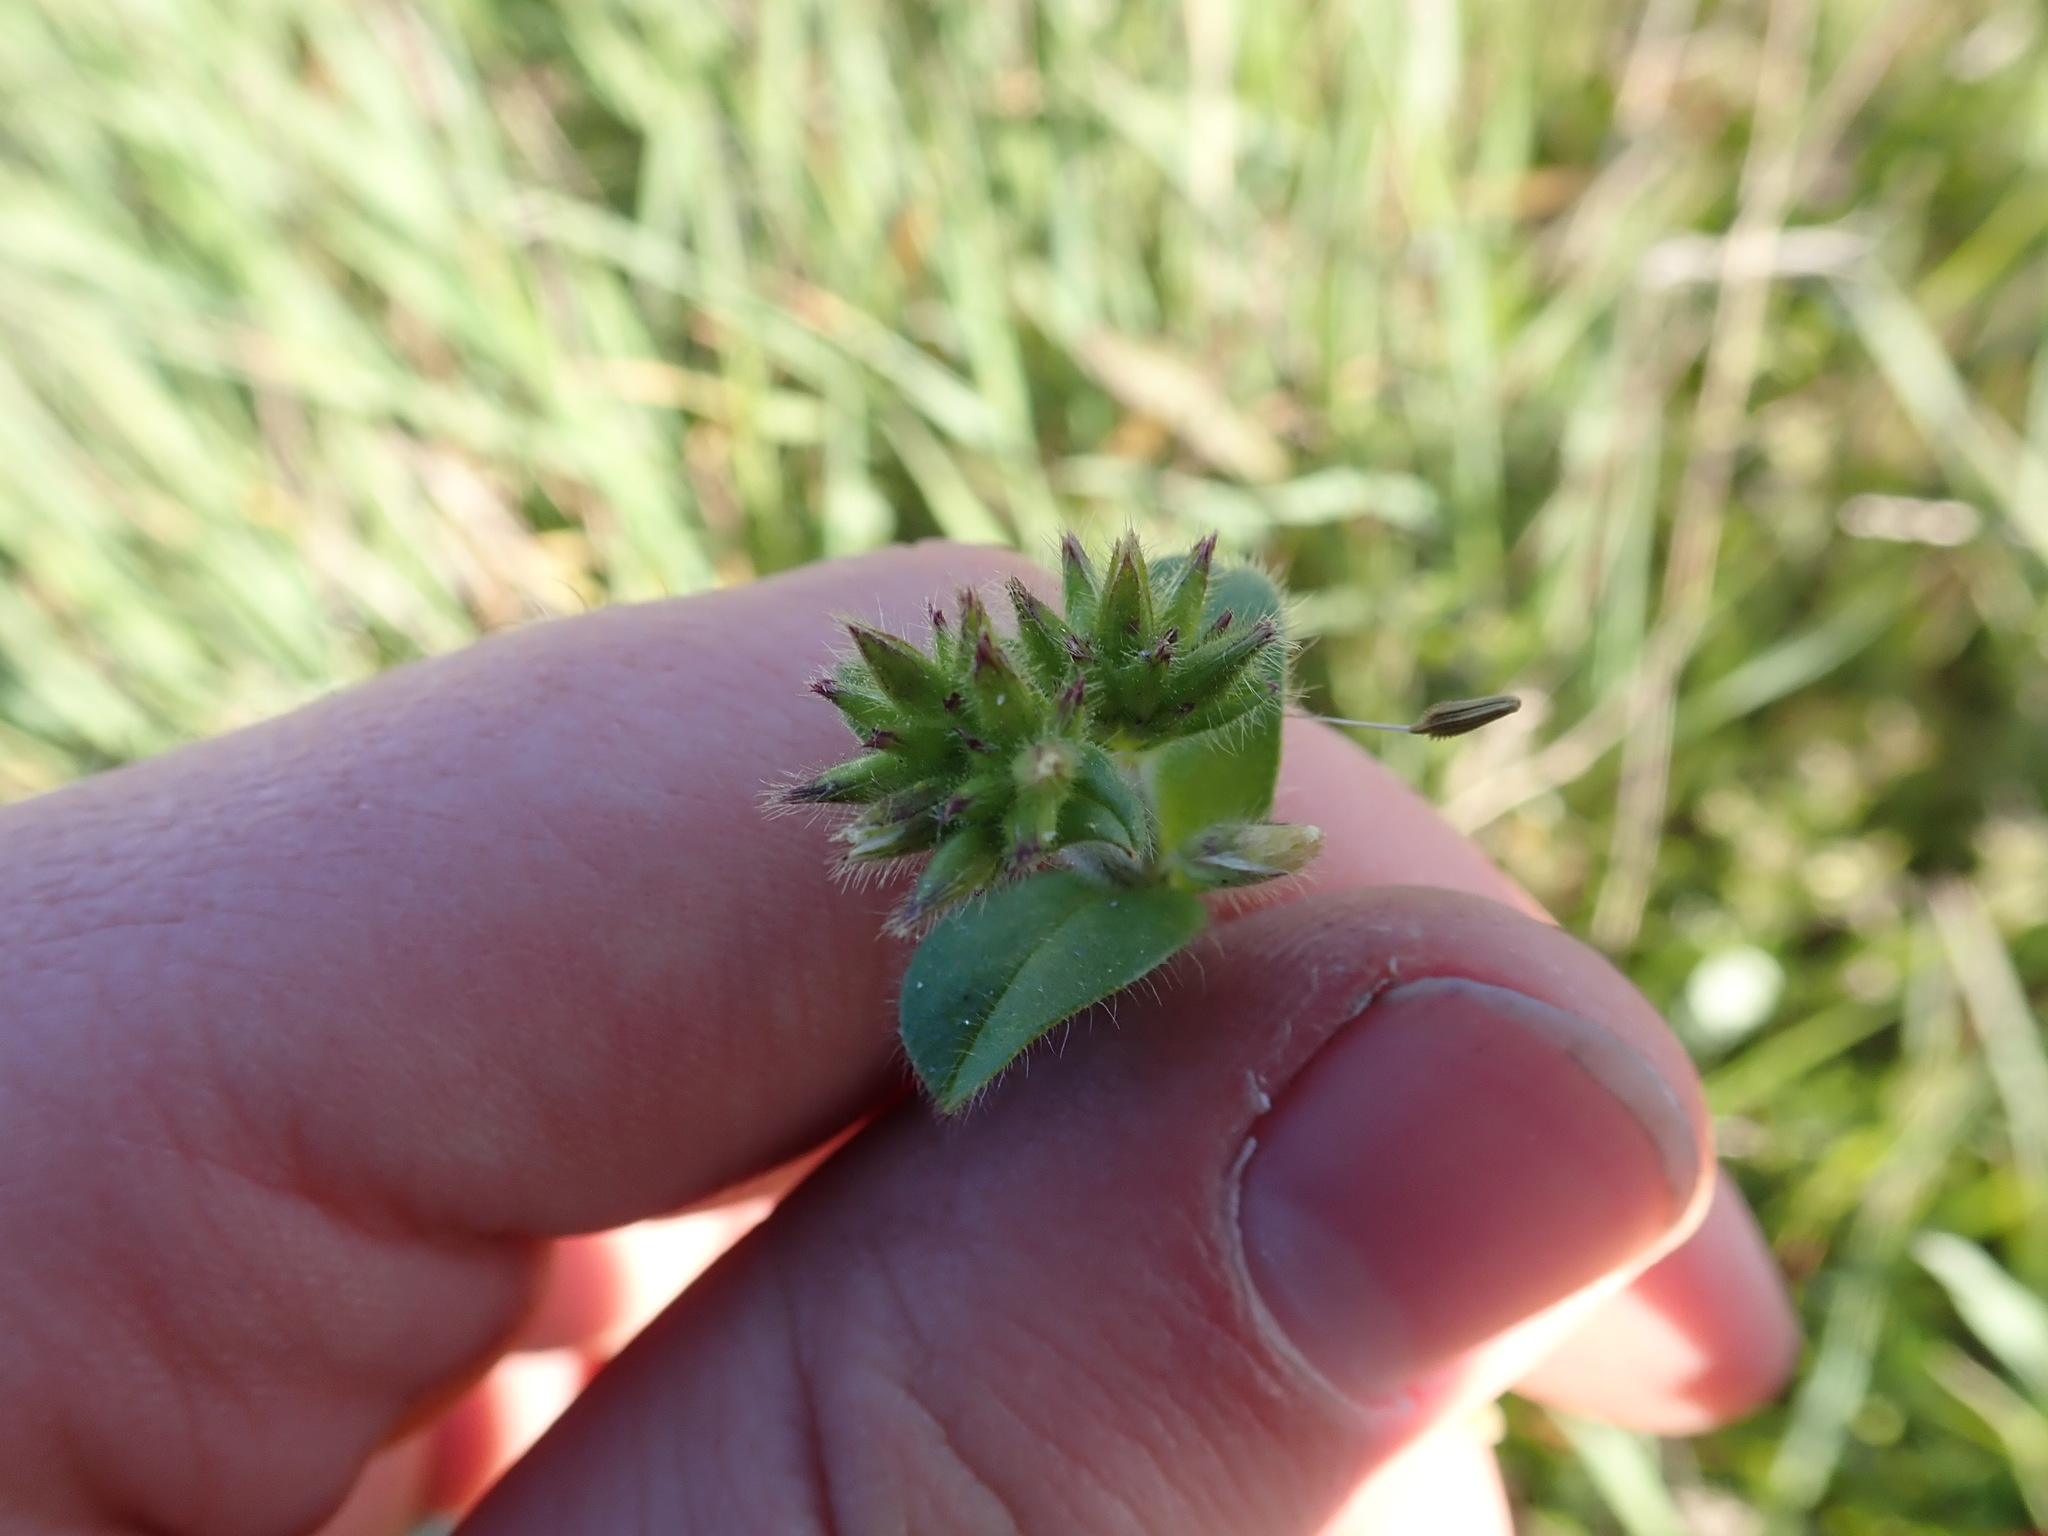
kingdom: Plantae
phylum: Tracheophyta
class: Magnoliopsida
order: Caryophyllales
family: Caryophyllaceae
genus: Cerastium
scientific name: Cerastium glomeratum
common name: Sticky chickweed
